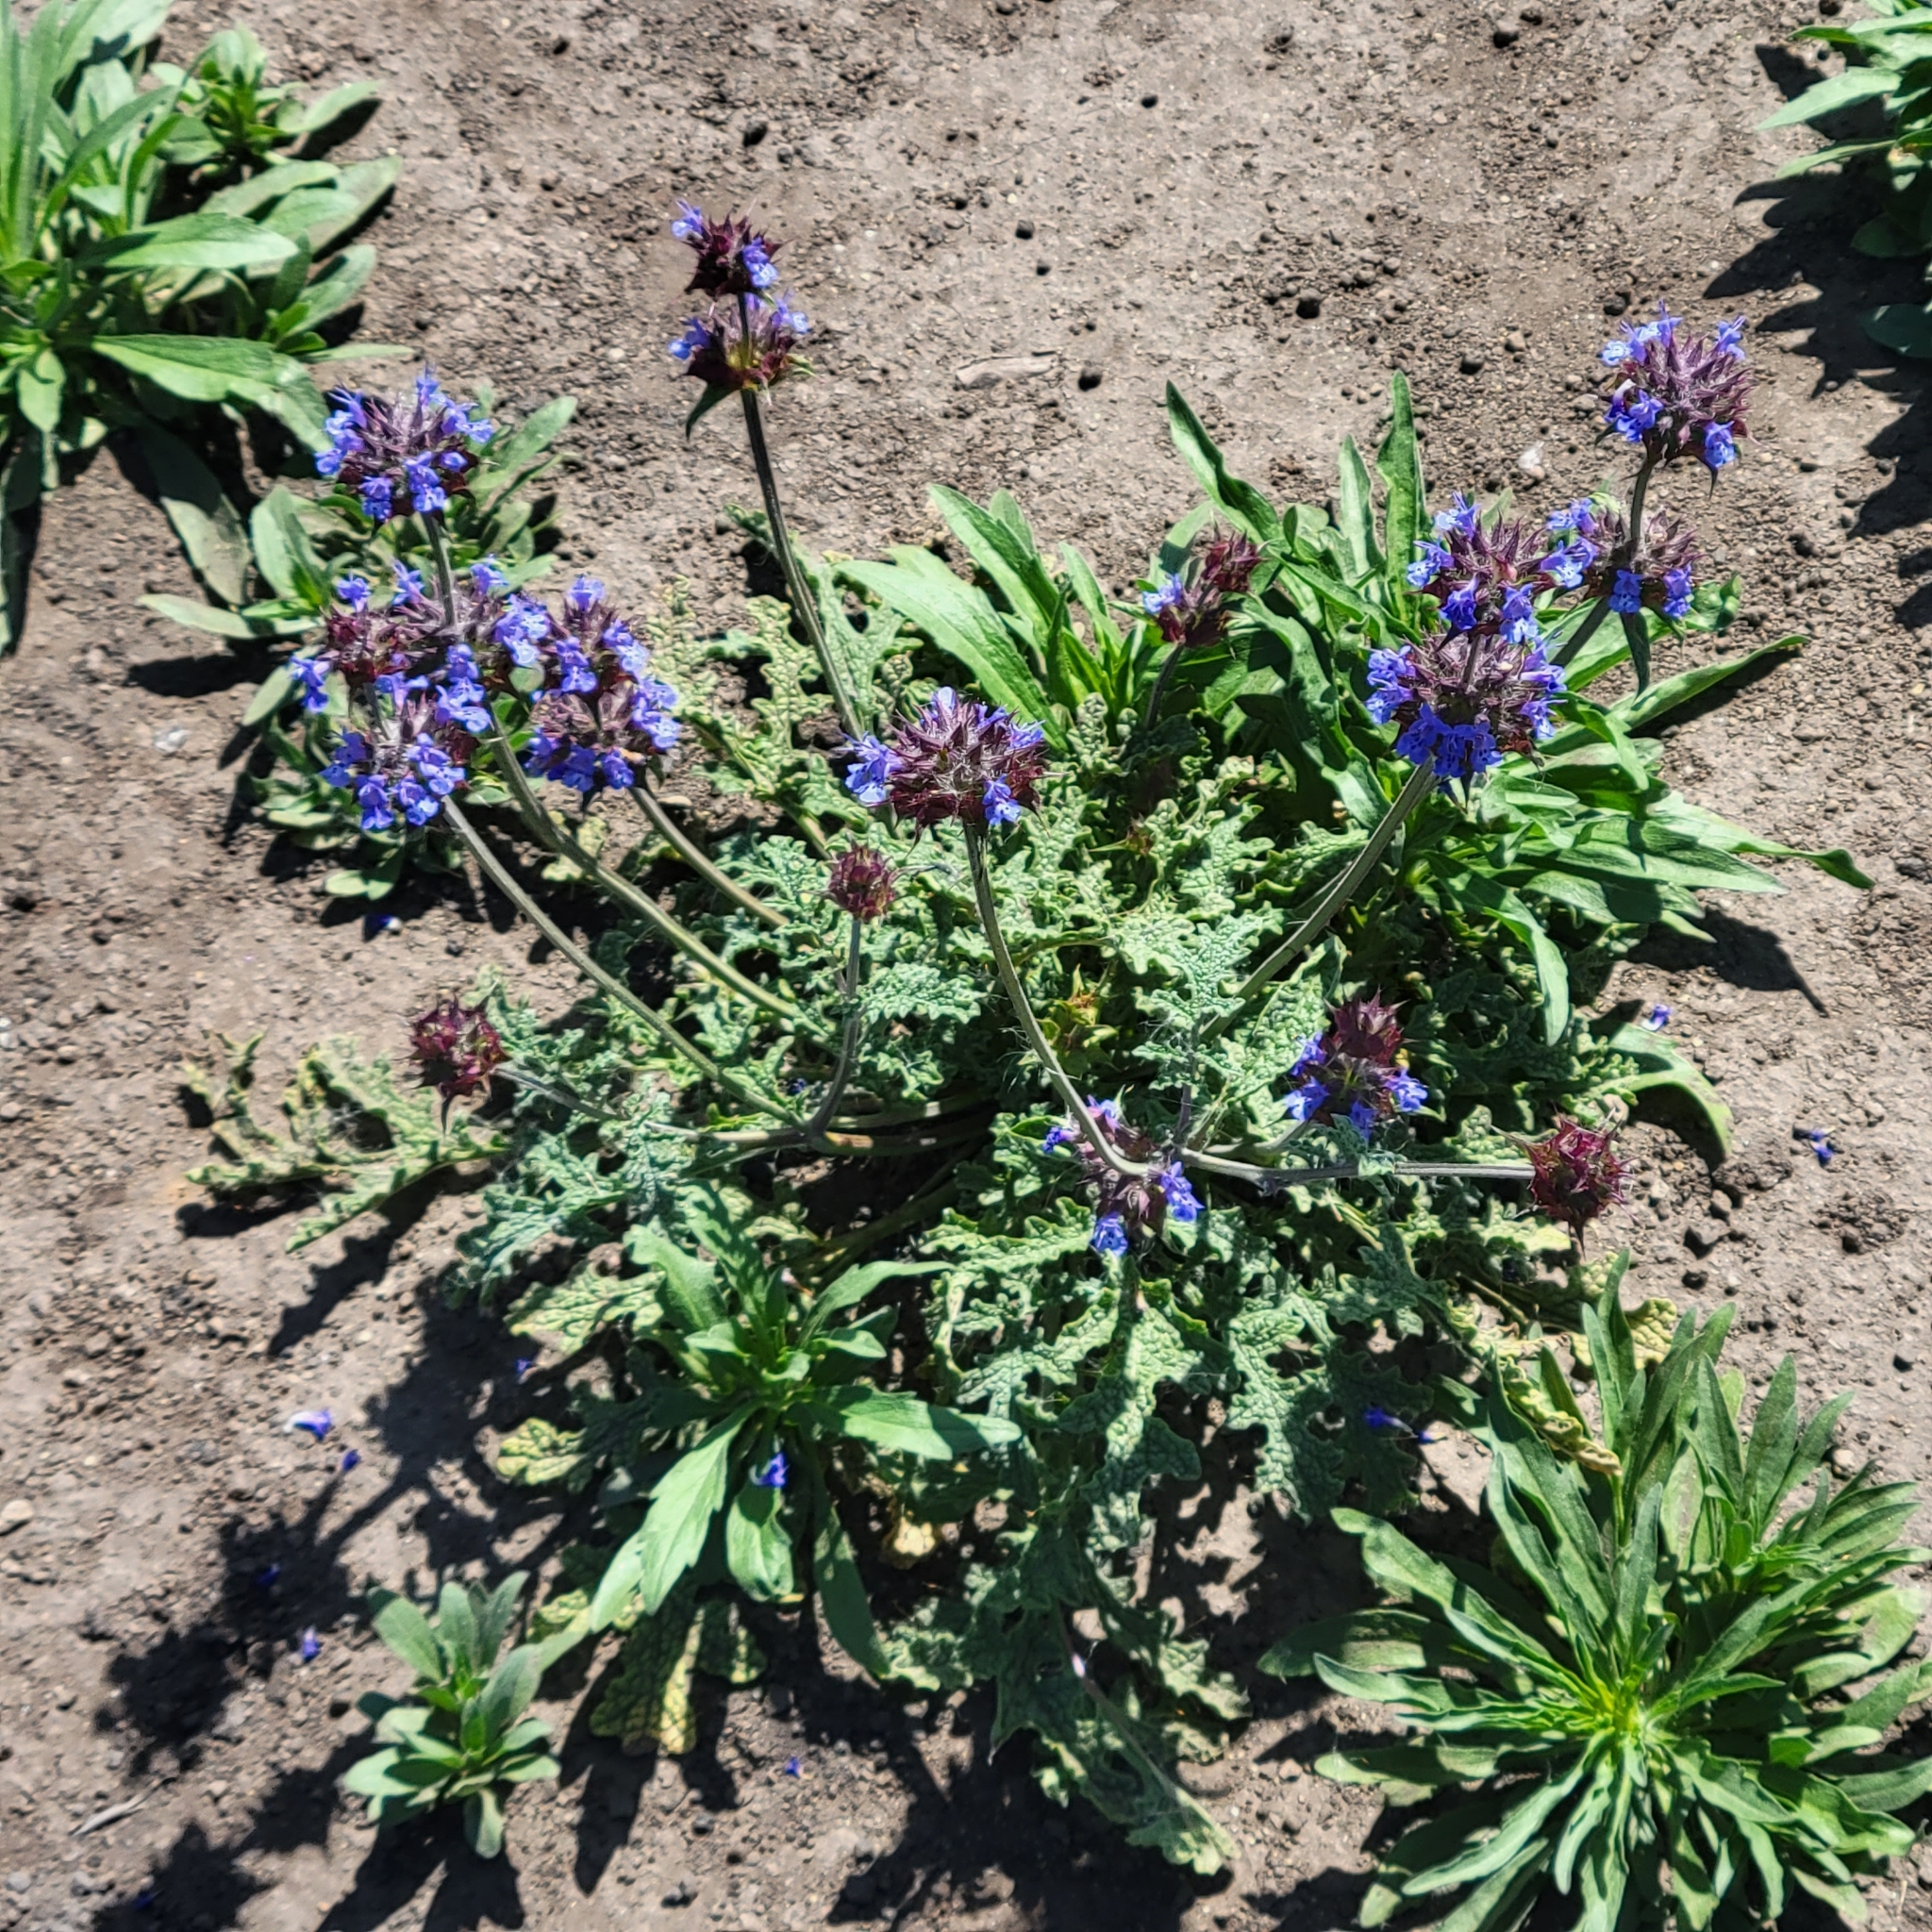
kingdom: Plantae
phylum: Tracheophyta
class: Magnoliopsida
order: Lamiales
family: Lamiaceae
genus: Salvia
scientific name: Salvia columbariae
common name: Chia
